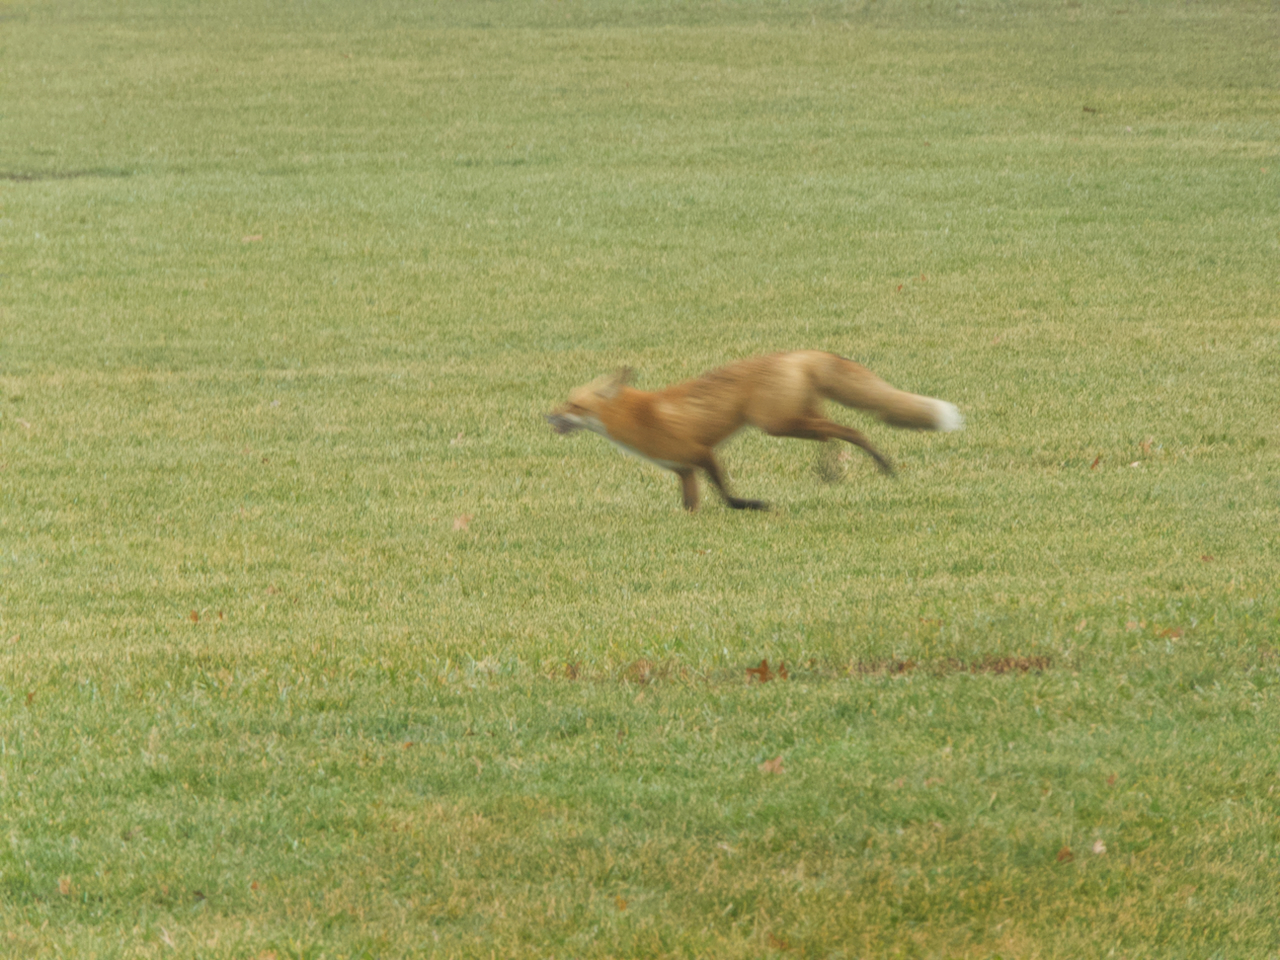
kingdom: Animalia
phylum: Chordata
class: Mammalia
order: Carnivora
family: Canidae
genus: Vulpes
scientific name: Vulpes vulpes
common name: Red fox
